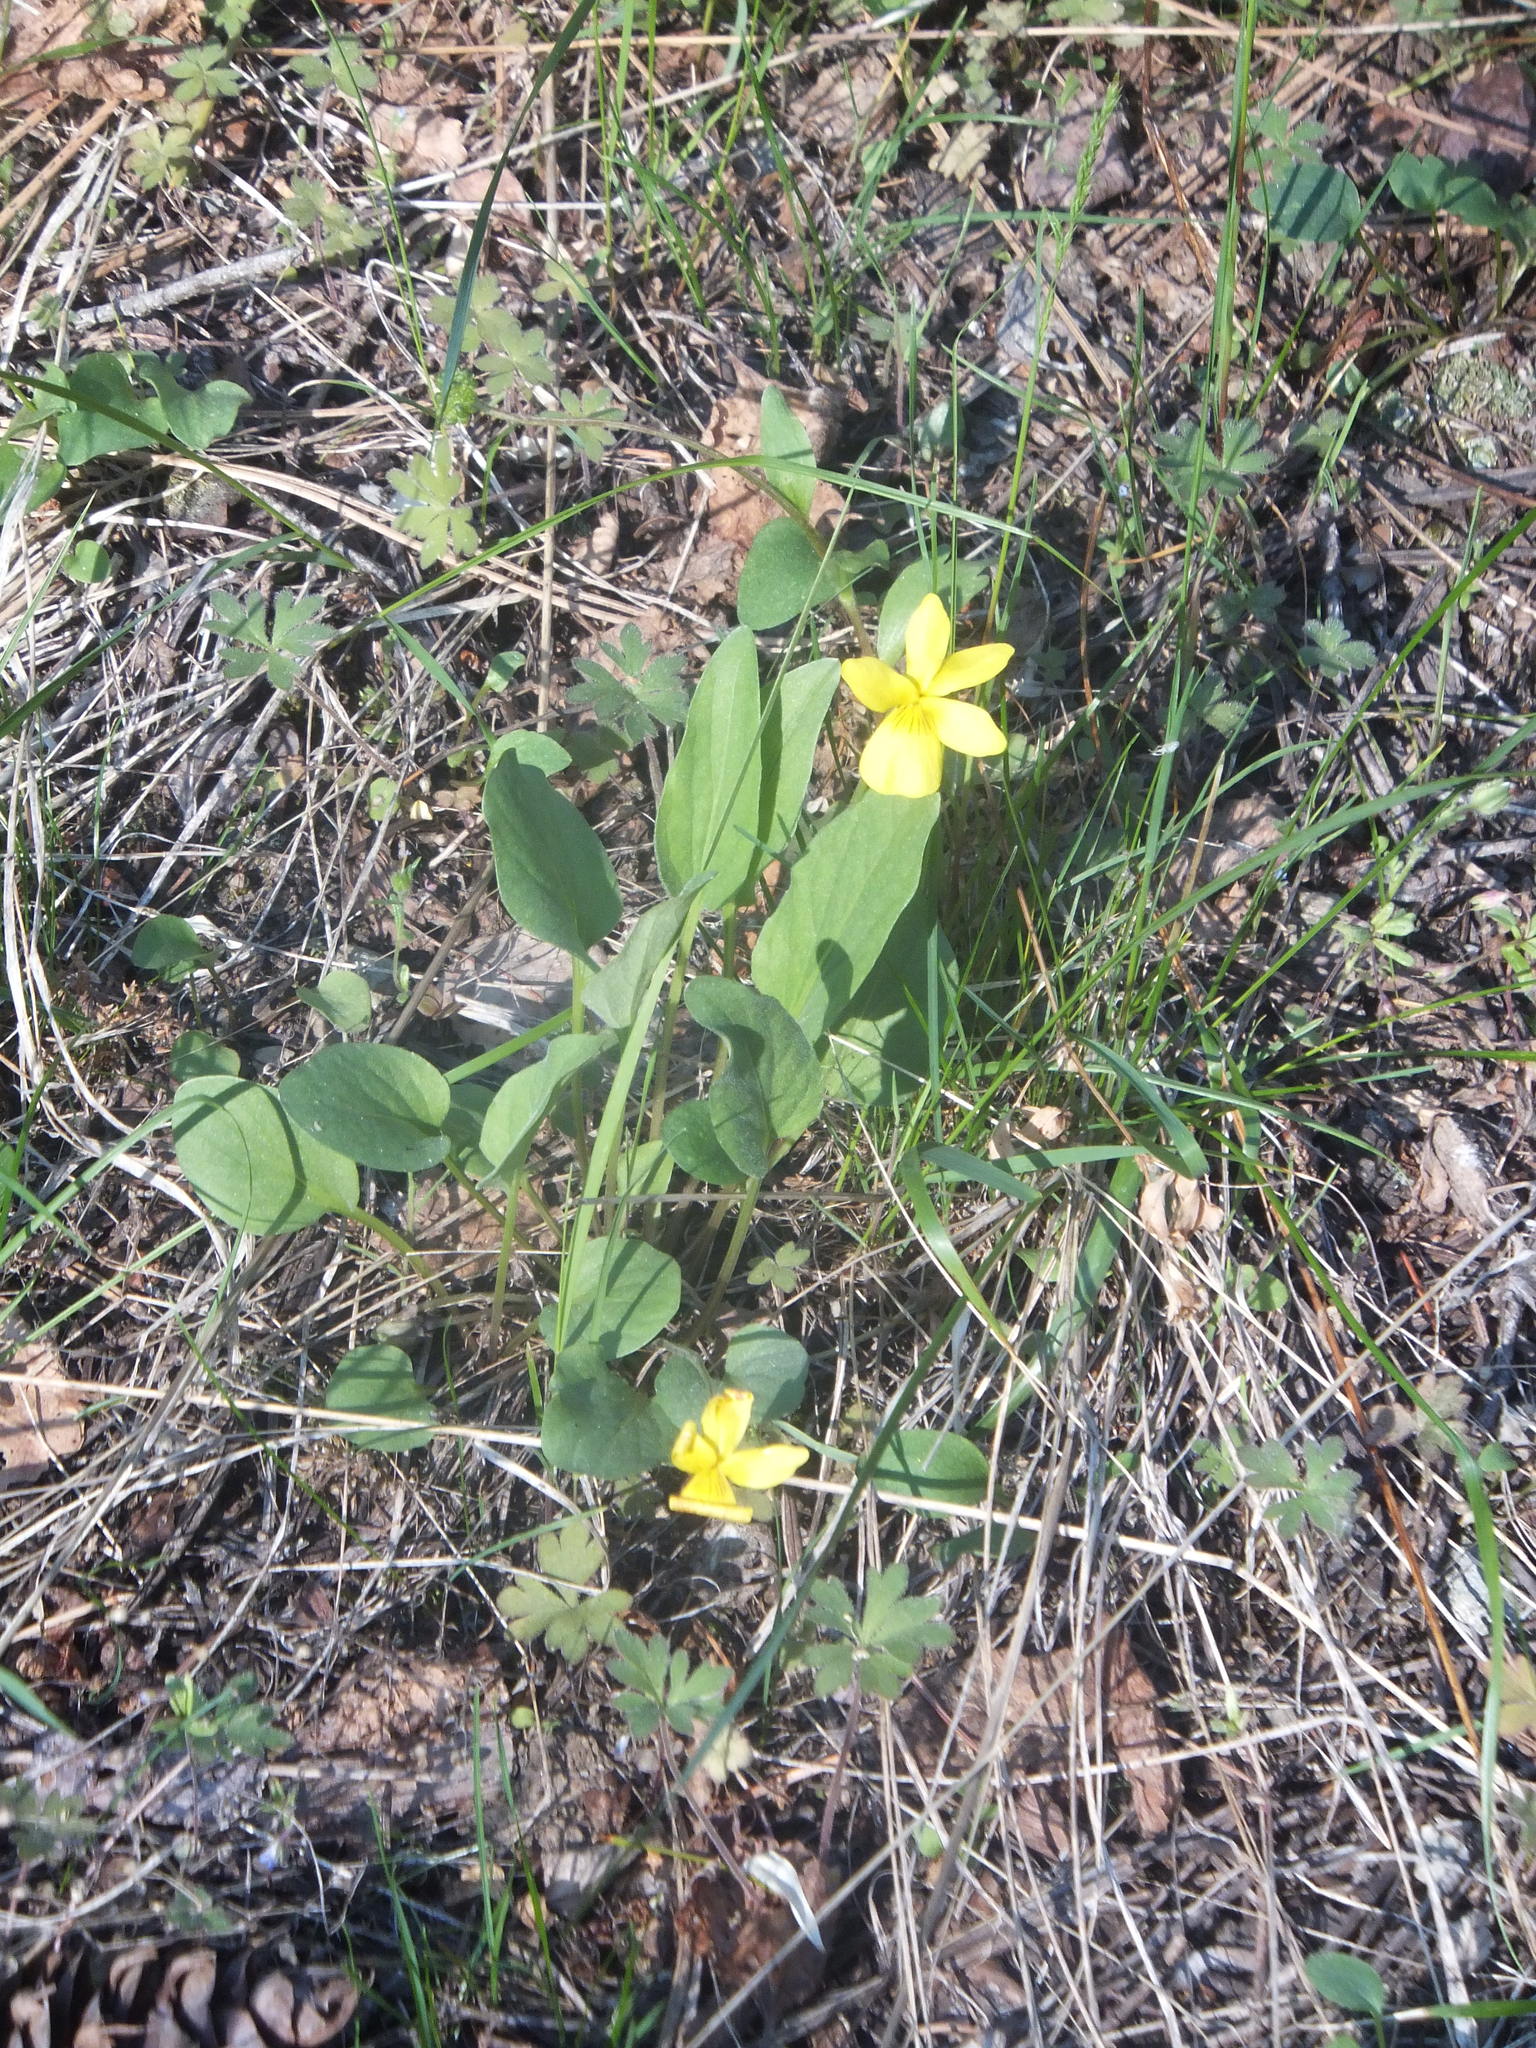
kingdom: Plantae
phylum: Tracheophyta
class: Magnoliopsida
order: Malpighiales
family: Violaceae
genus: Viola
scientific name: Viola vallicola
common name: Valley violet
